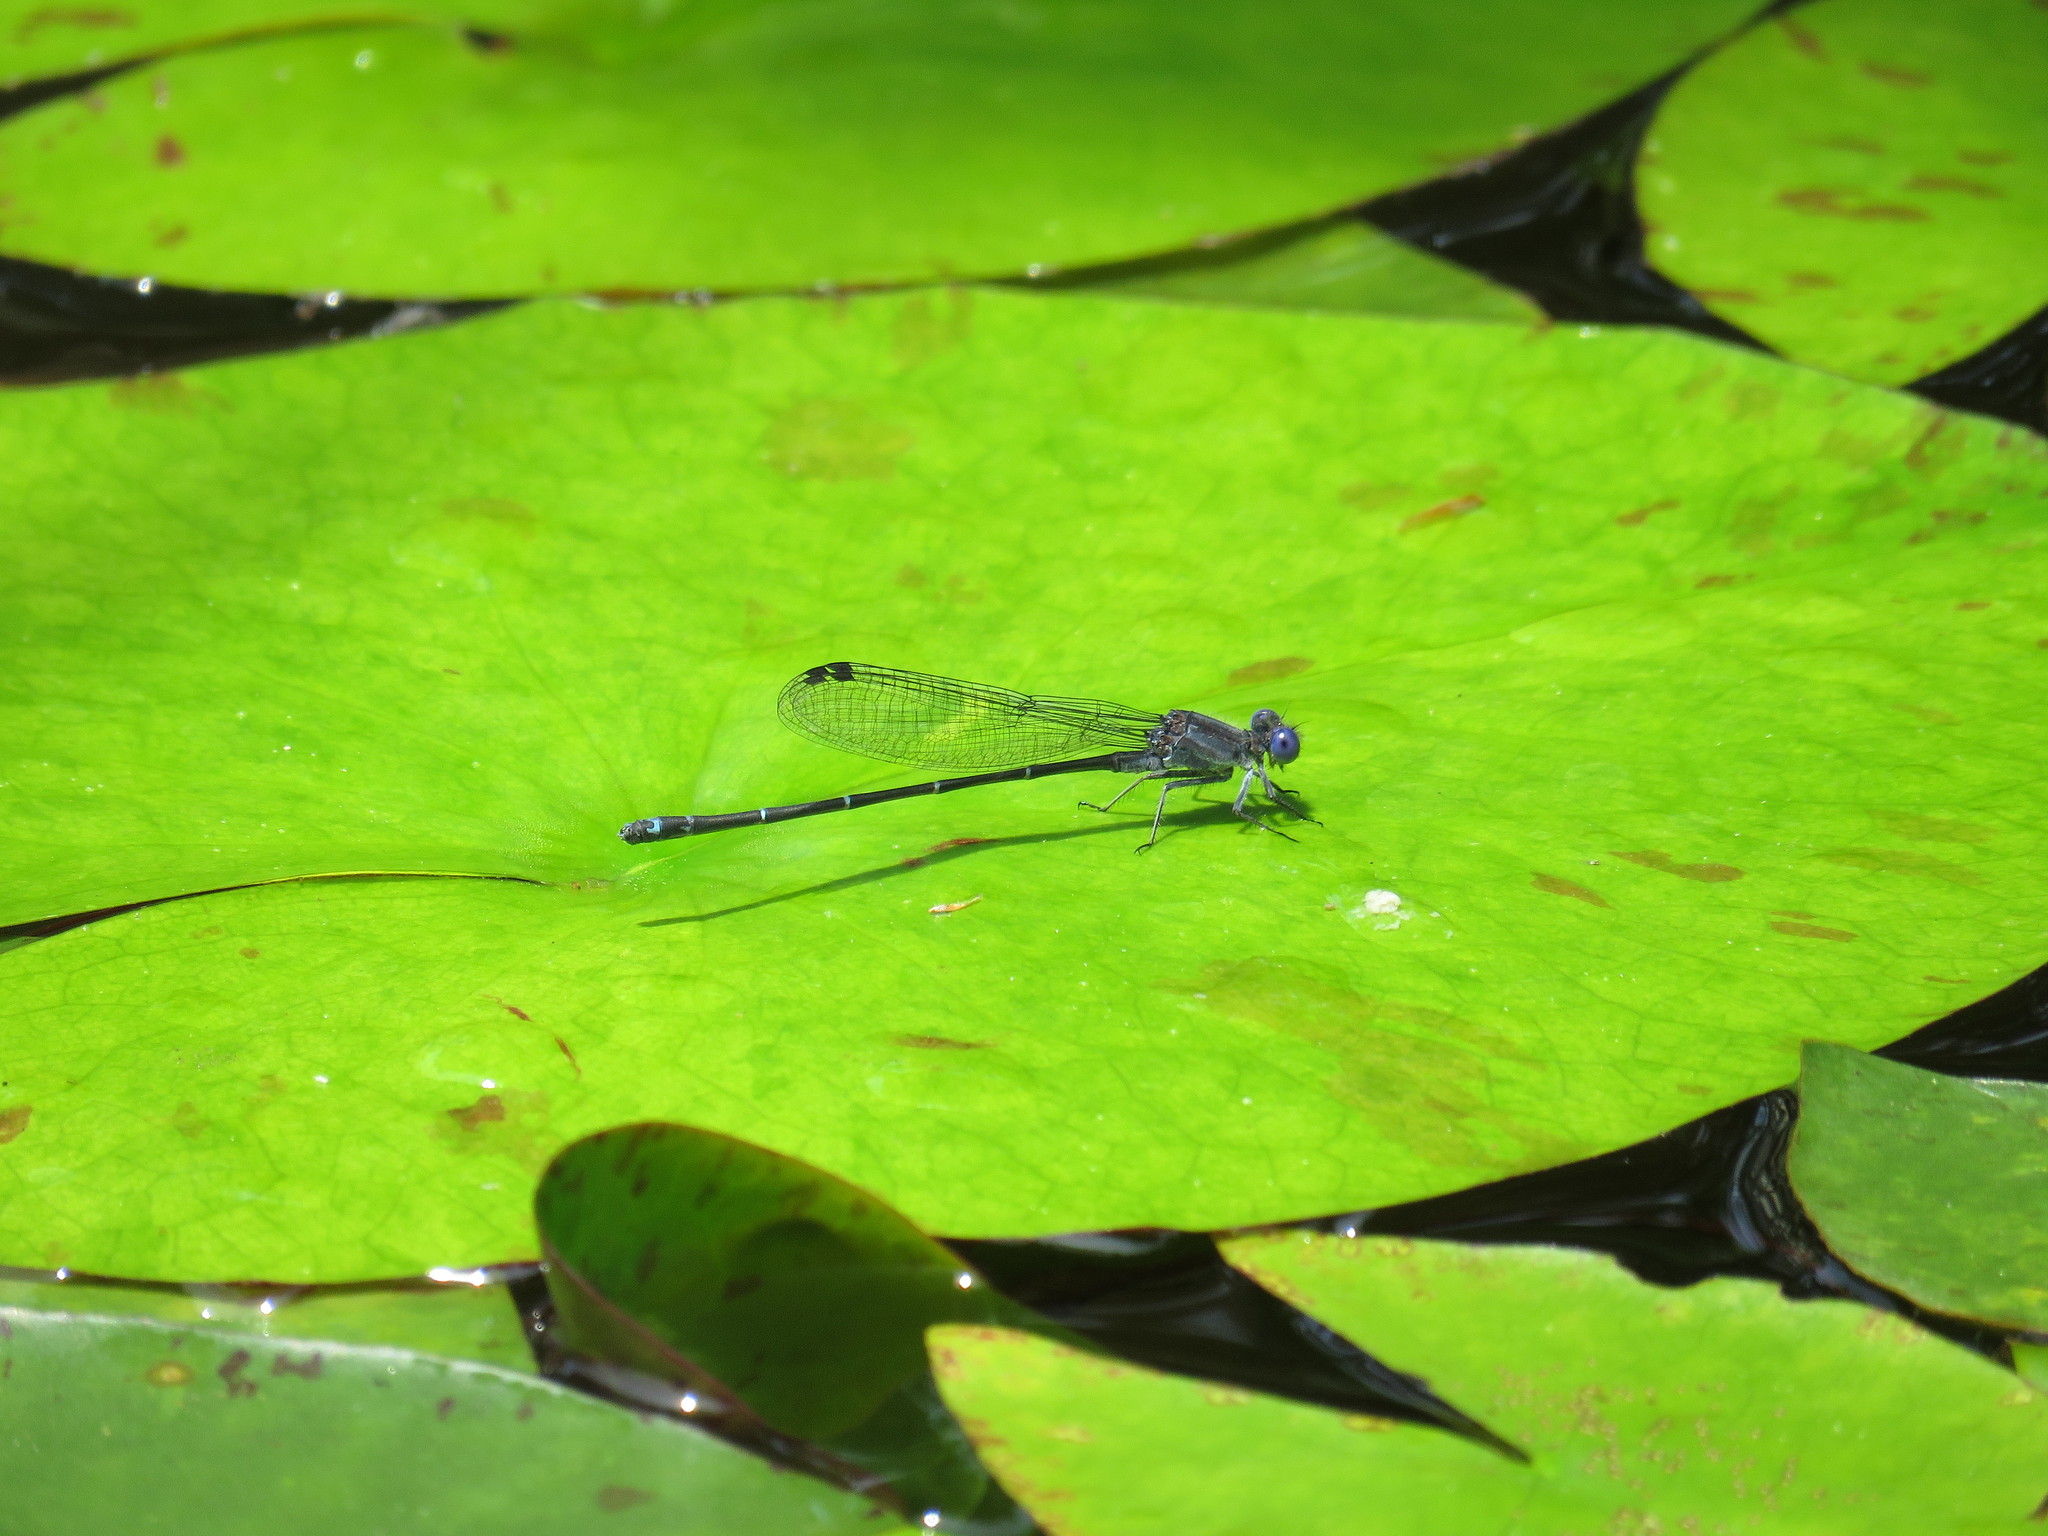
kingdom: Animalia
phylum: Arthropoda
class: Insecta
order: Odonata
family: Coenagrionidae
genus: Argia
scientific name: Argia translata
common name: Dusky dancer
